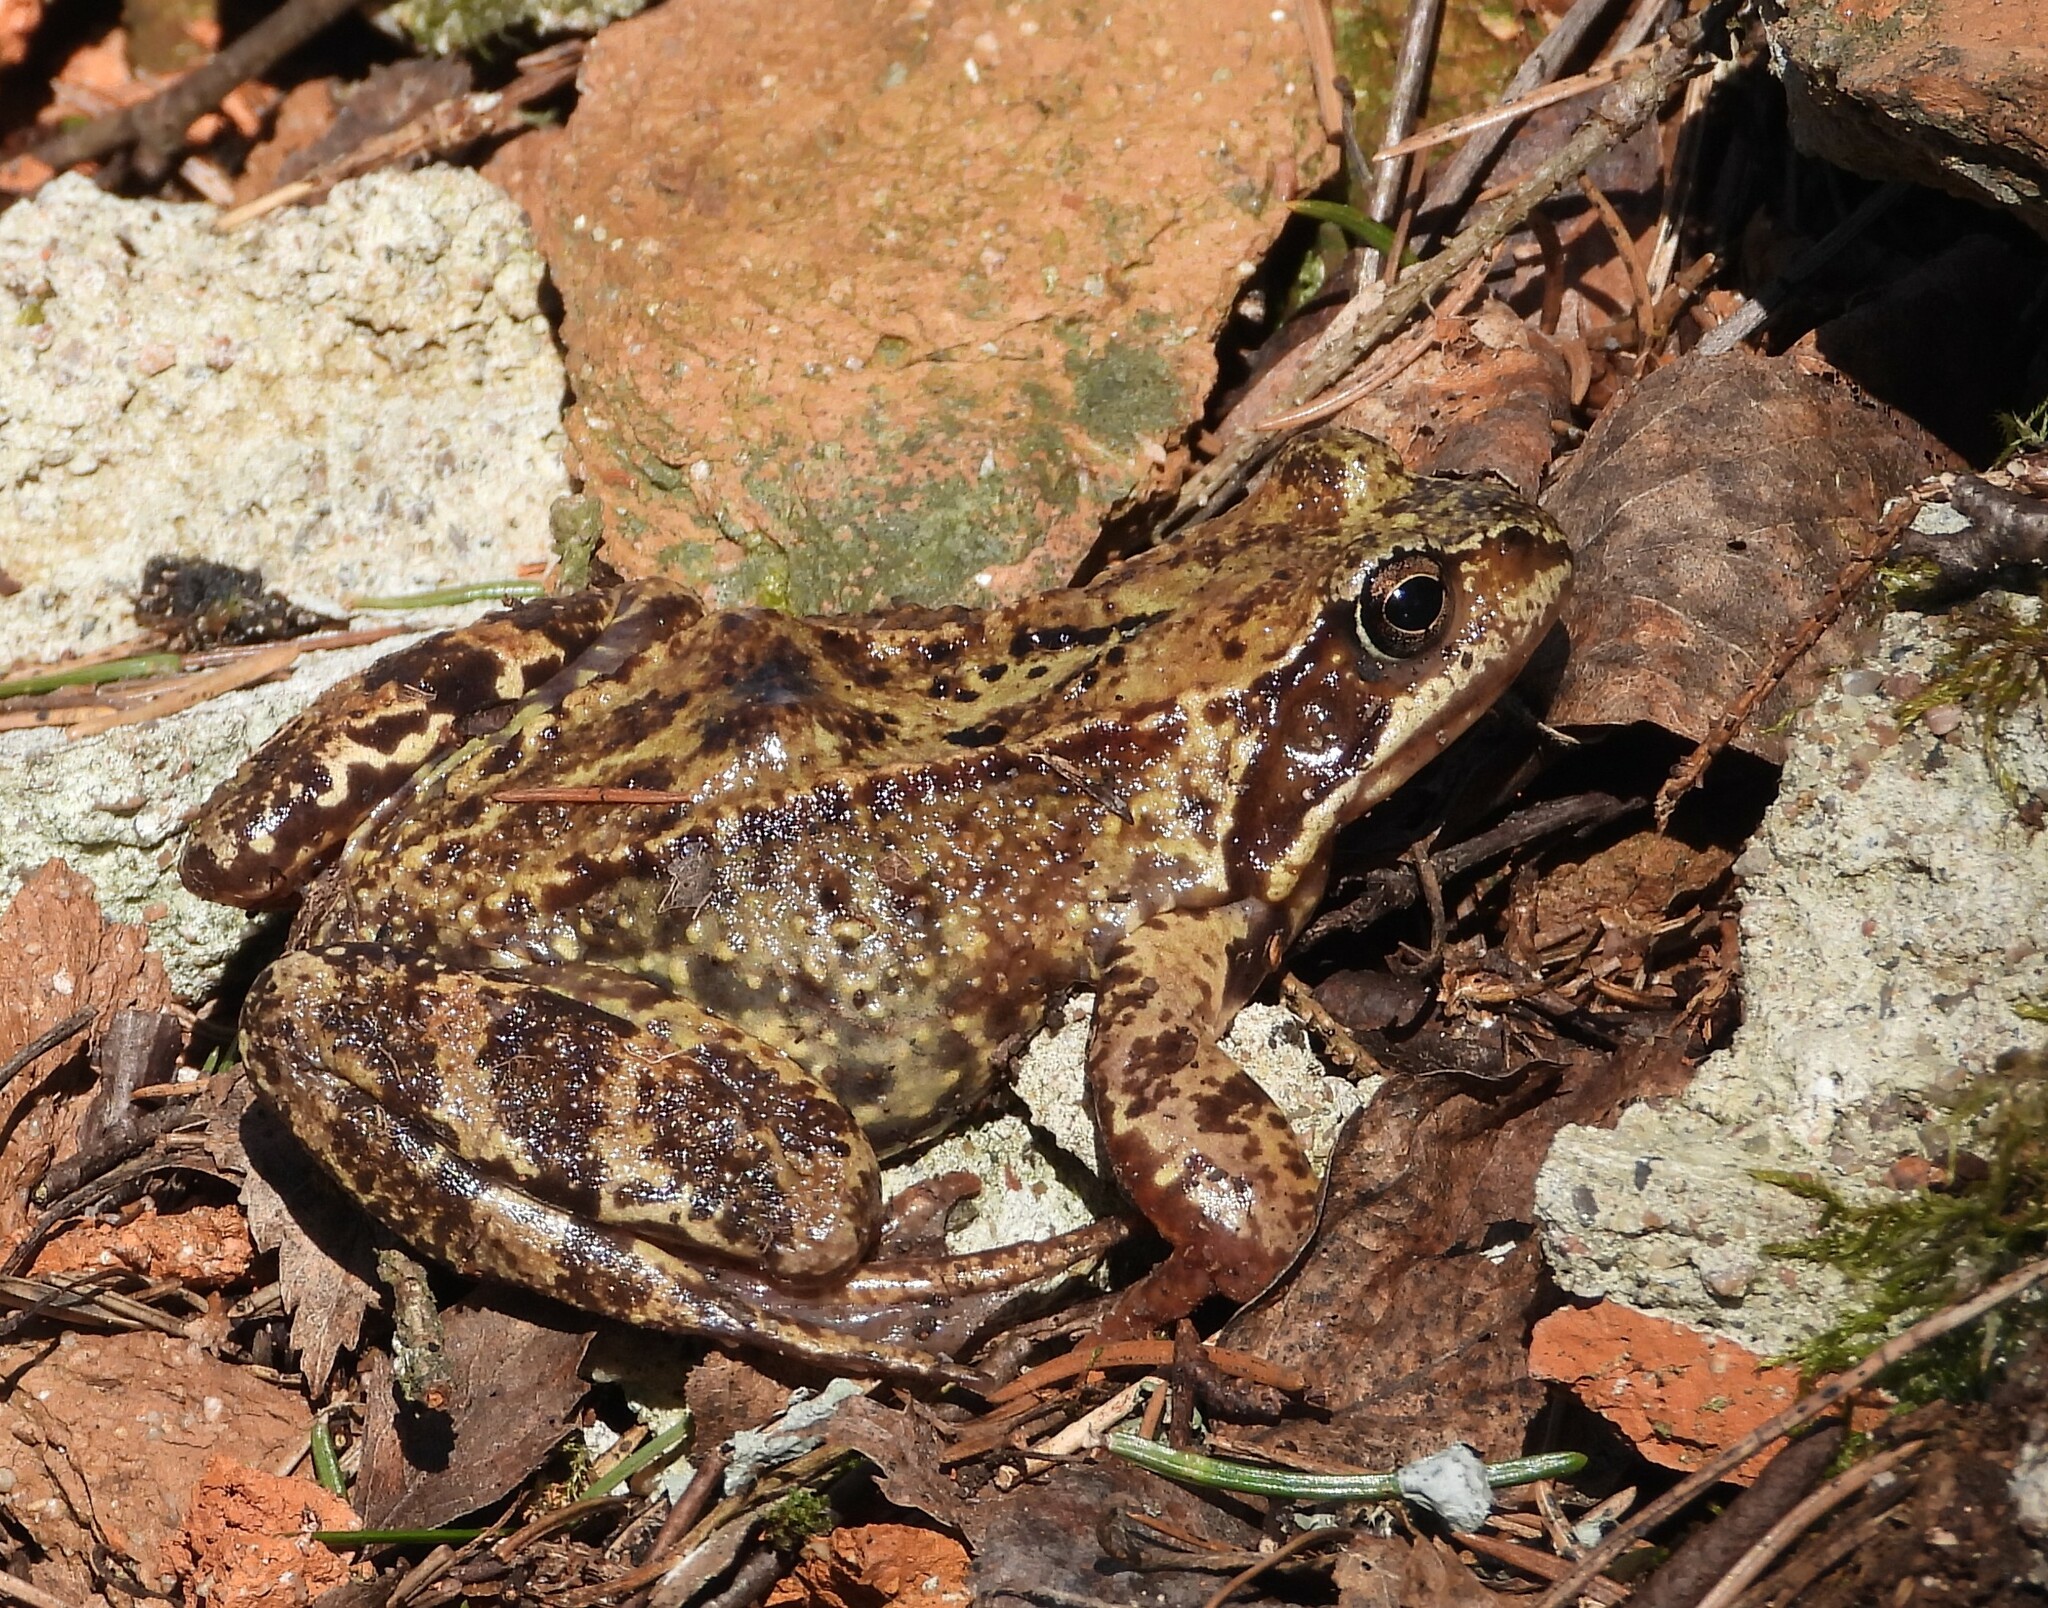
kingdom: Animalia
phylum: Chordata
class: Amphibia
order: Anura
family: Ranidae
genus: Rana
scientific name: Rana temporaria
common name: Common frog
